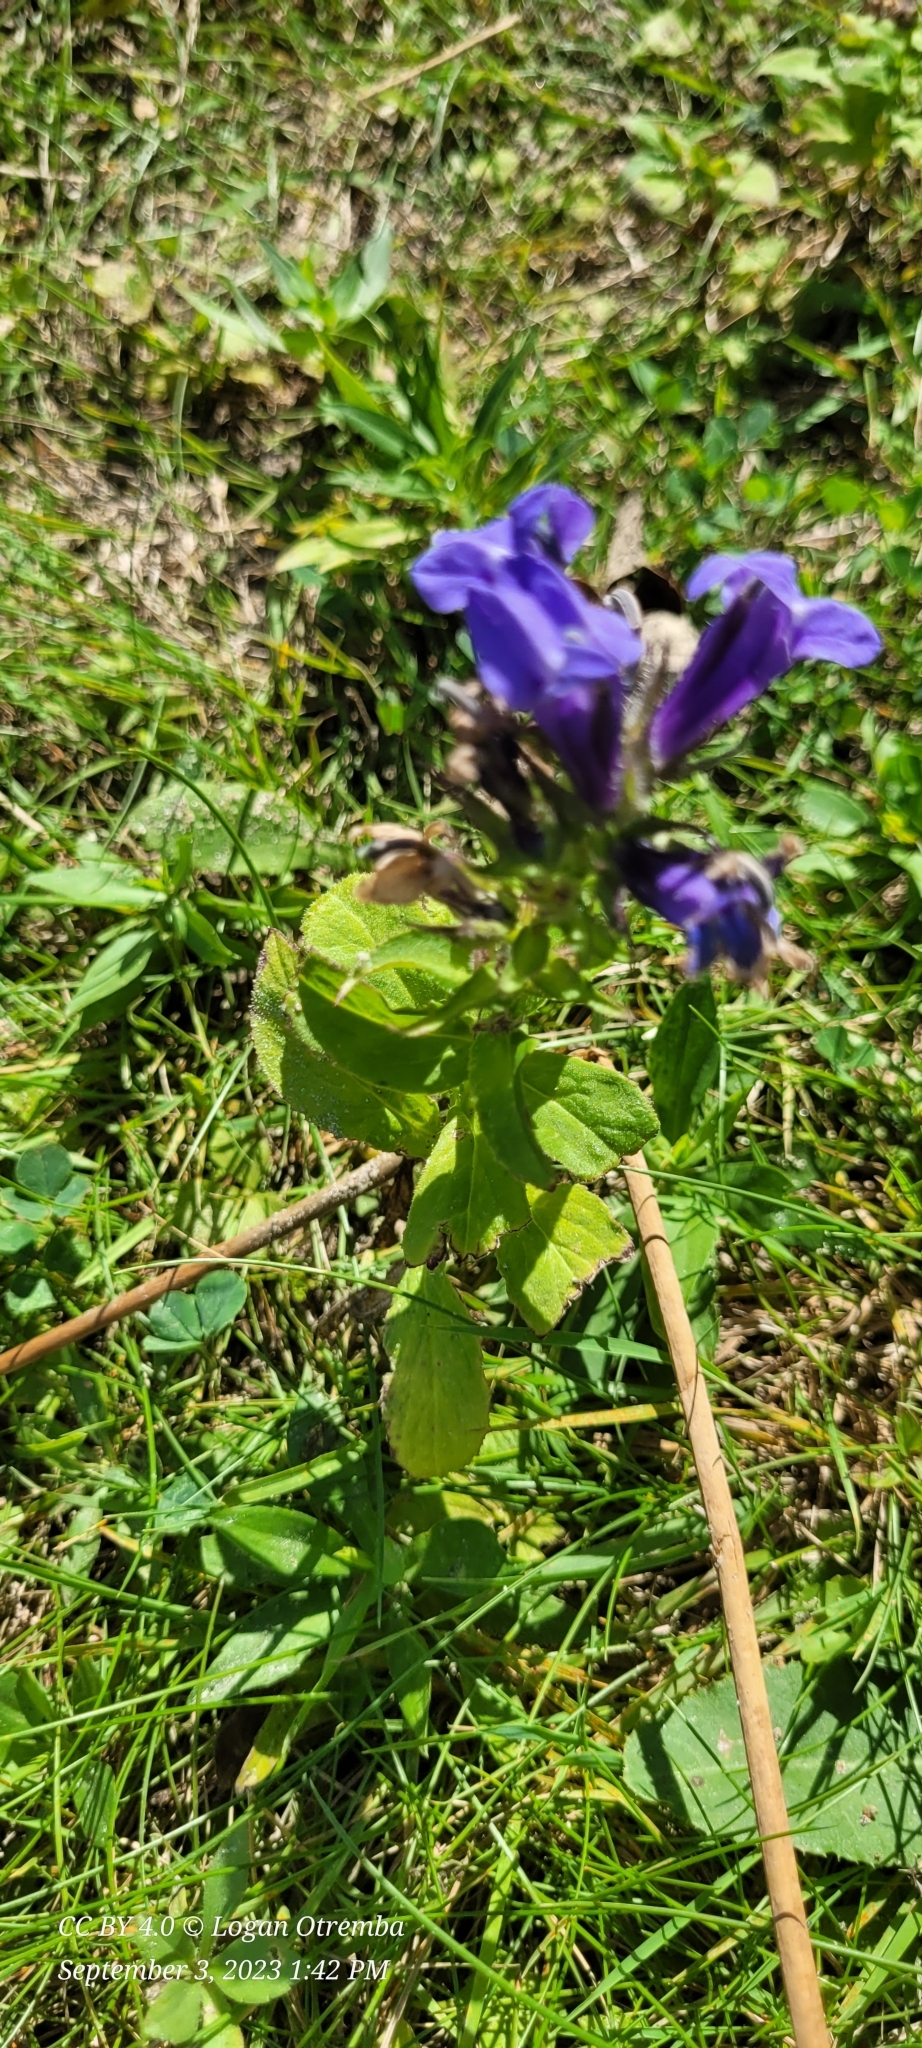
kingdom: Plantae
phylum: Tracheophyta
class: Magnoliopsida
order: Asterales
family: Campanulaceae
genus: Lobelia
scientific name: Lobelia siphilitica
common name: Great lobelia
